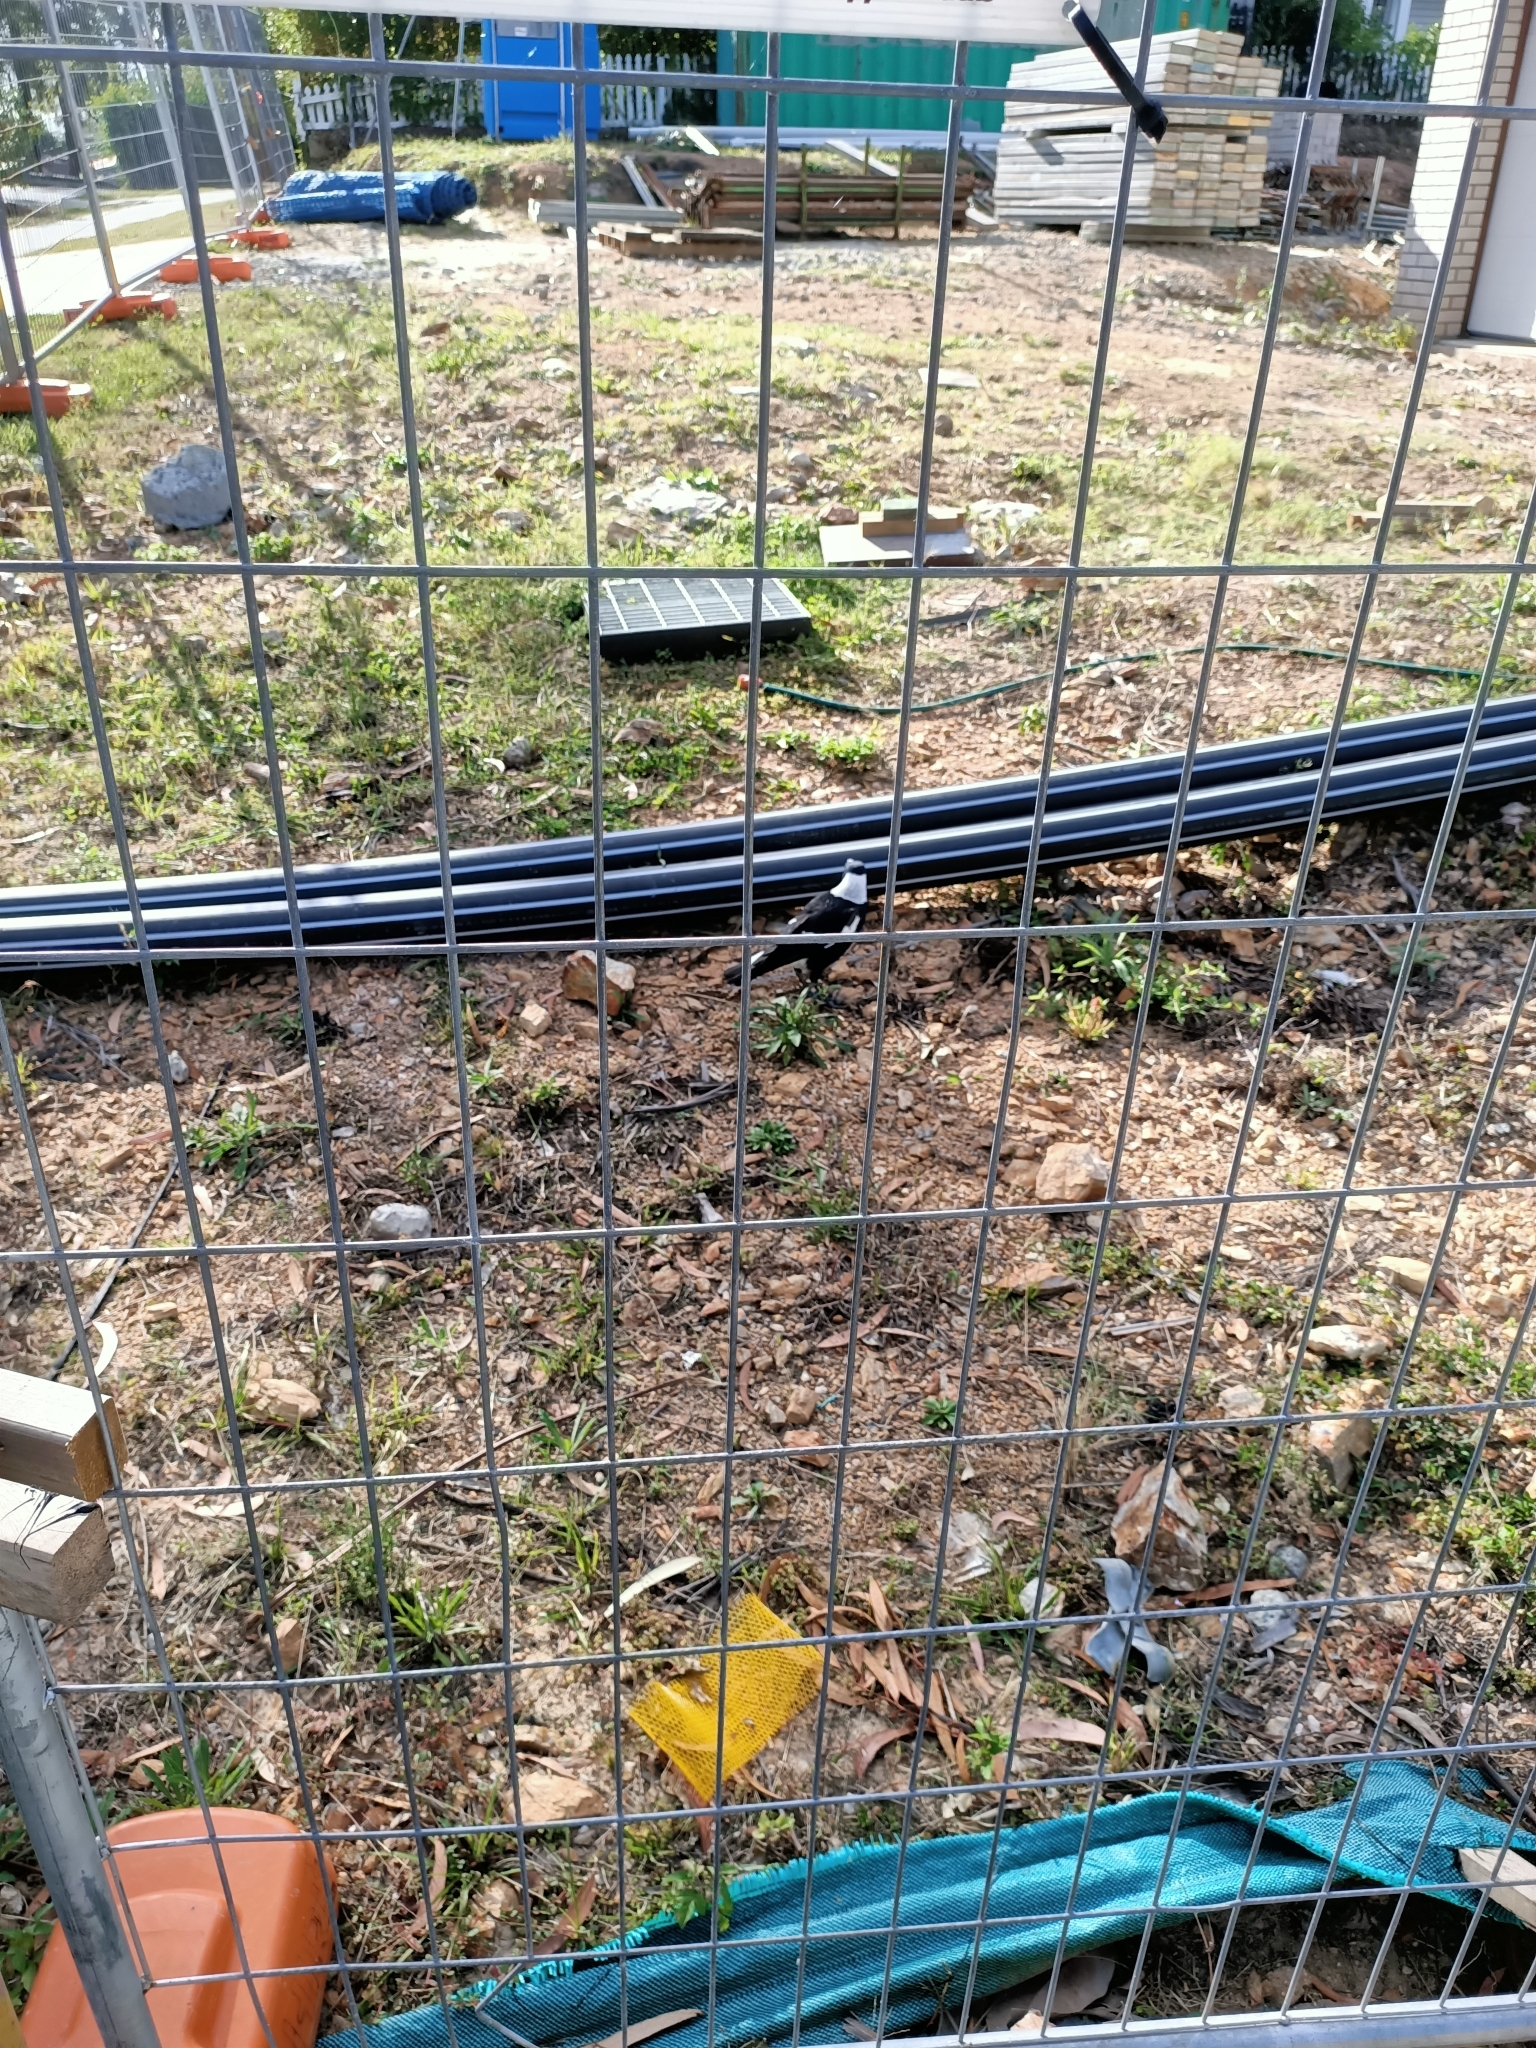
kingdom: Animalia
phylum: Chordata
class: Aves
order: Passeriformes
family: Cracticidae
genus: Gymnorhina
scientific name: Gymnorhina tibicen
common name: Australian magpie
